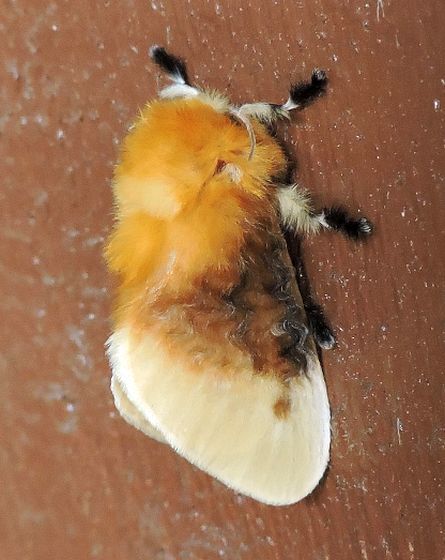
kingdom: Animalia
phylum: Arthropoda
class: Insecta
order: Lepidoptera
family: Megalopygidae
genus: Megalopyge
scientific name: Megalopyge opercularis
